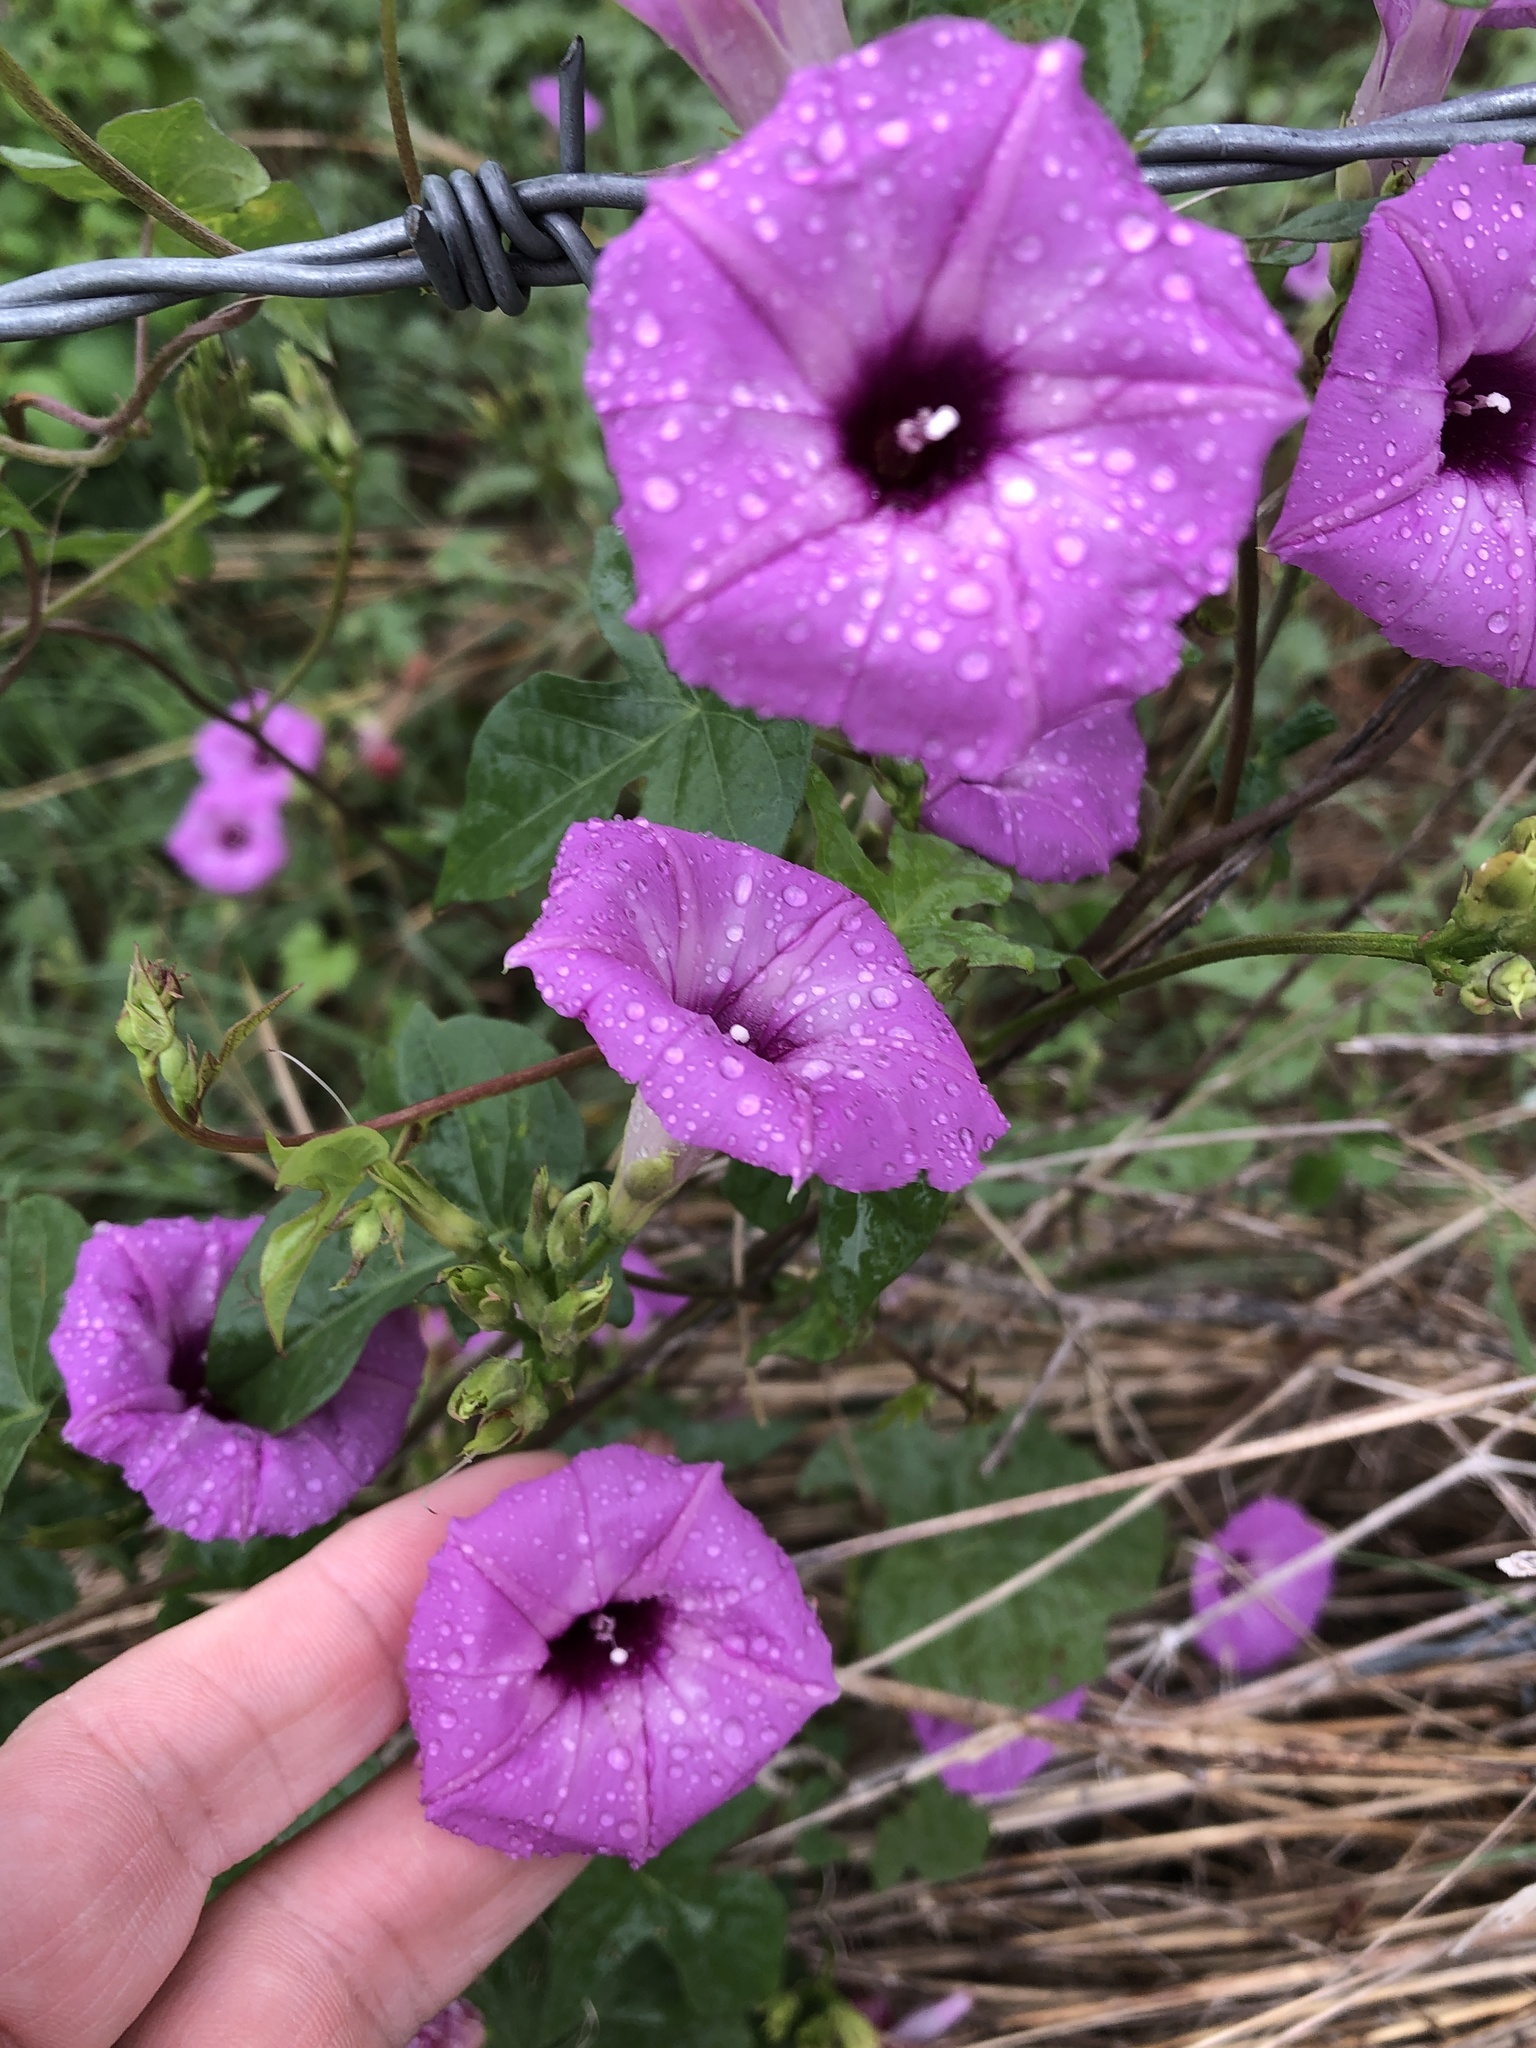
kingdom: Plantae
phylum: Tracheophyta
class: Magnoliopsida
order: Solanales
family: Convolvulaceae
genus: Ipomoea
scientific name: Ipomoea cordatotriloba
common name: Cotton morning glory
